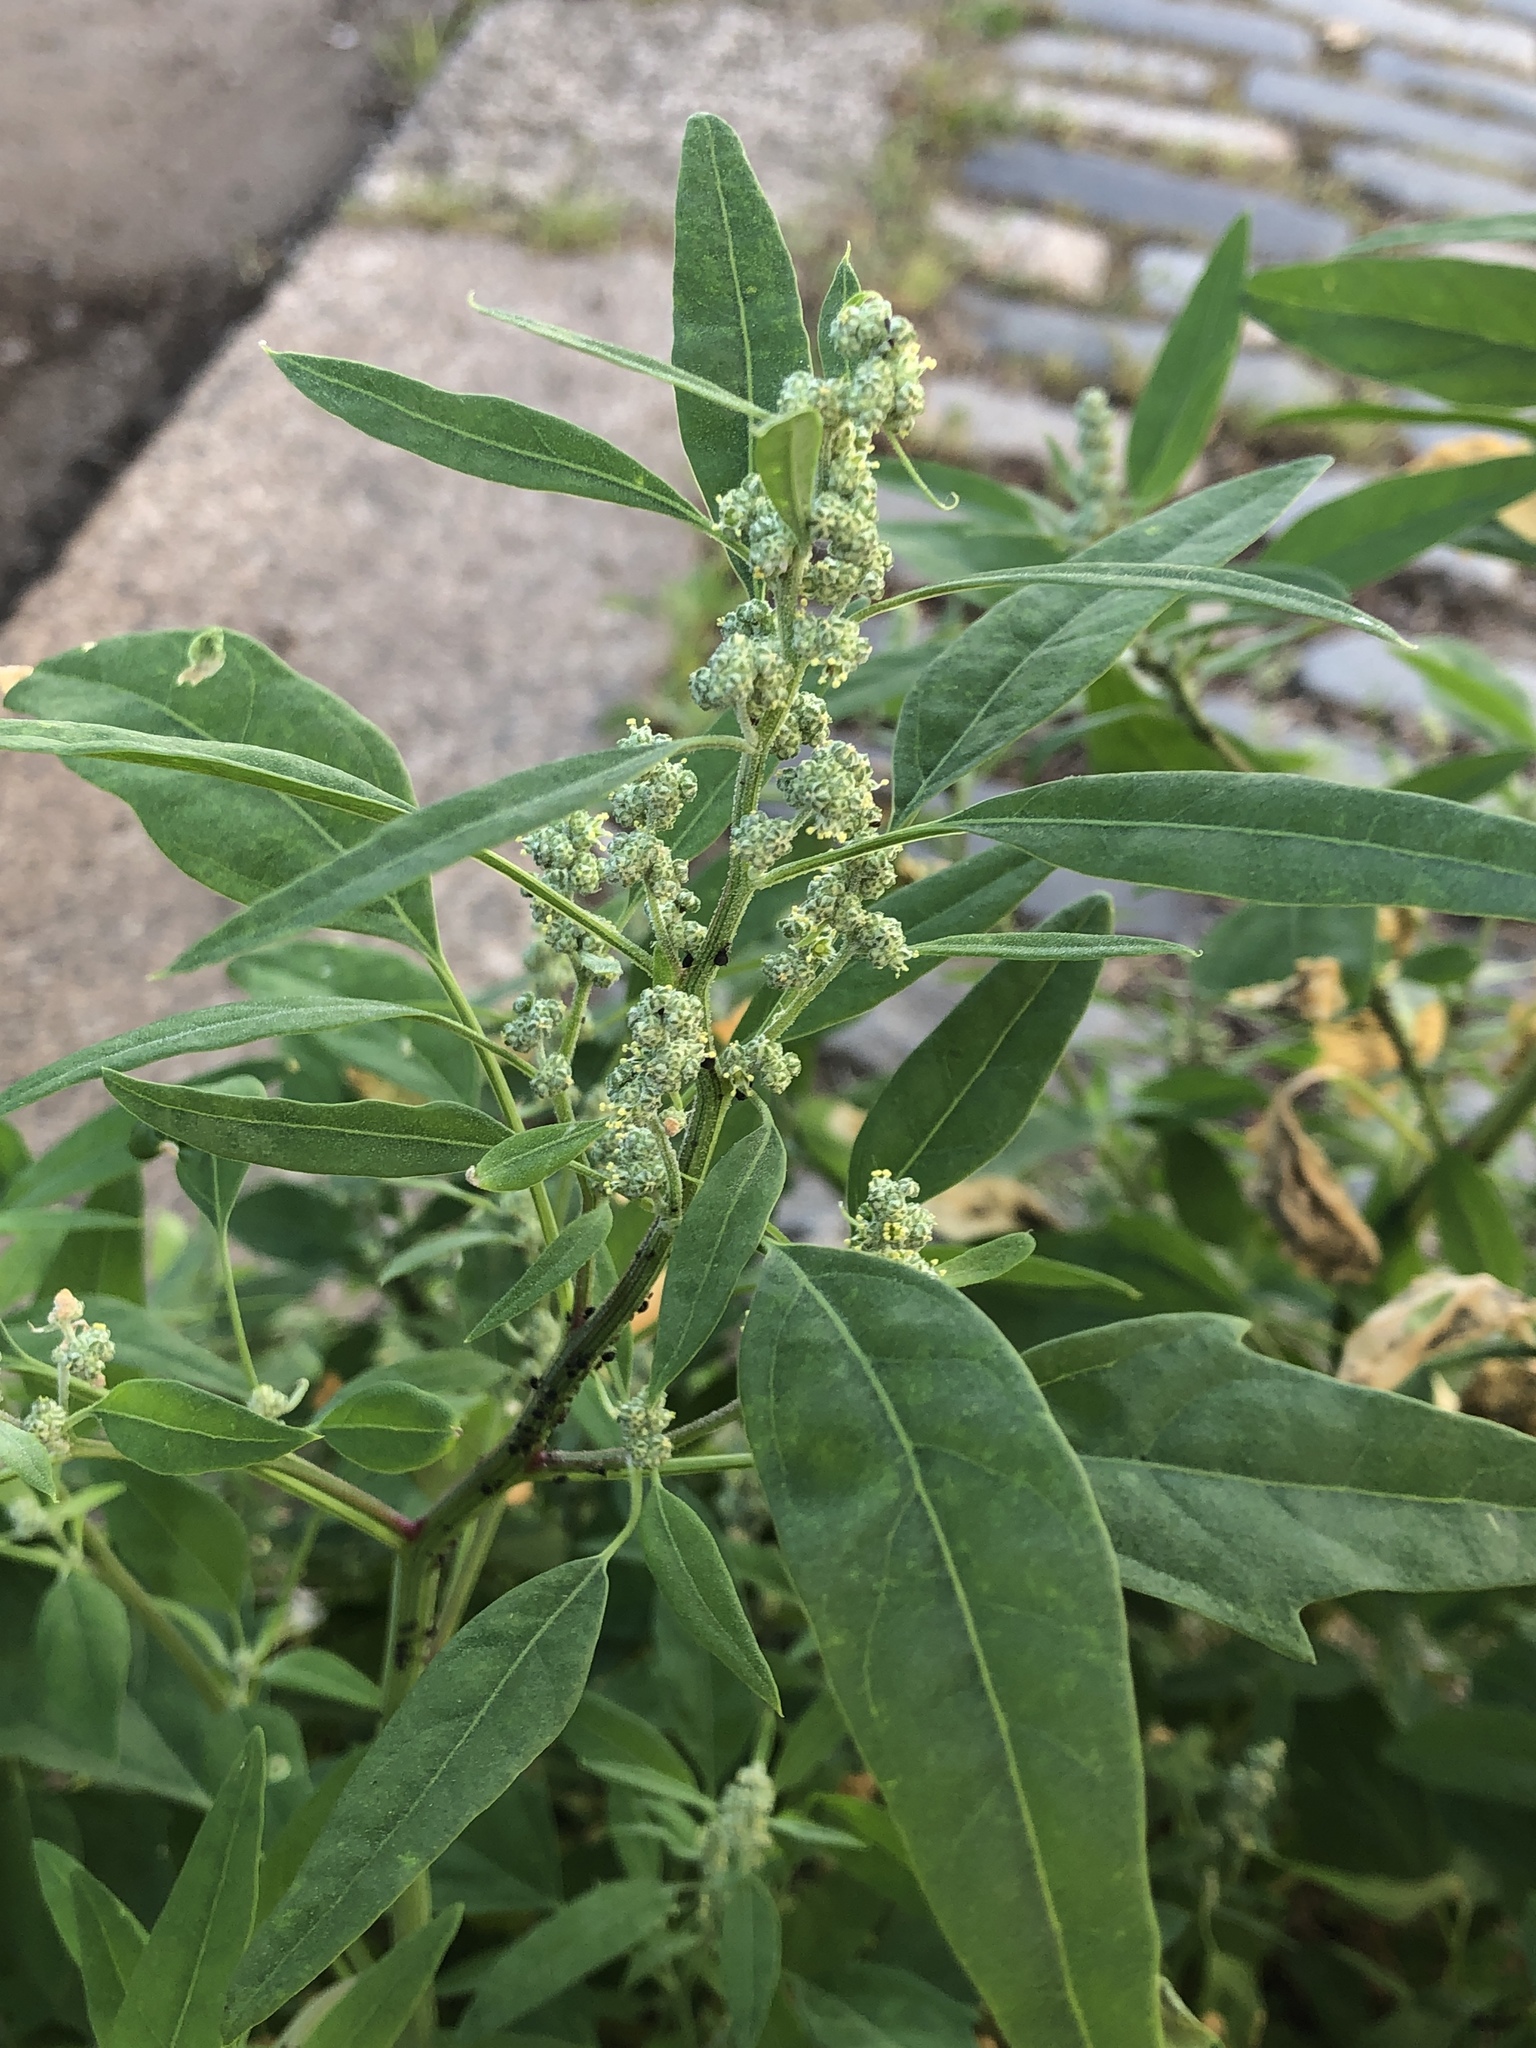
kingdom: Plantae
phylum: Tracheophyta
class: Magnoliopsida
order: Caryophyllales
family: Amaranthaceae
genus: Chenopodium
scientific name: Chenopodium album
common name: Fat-hen
